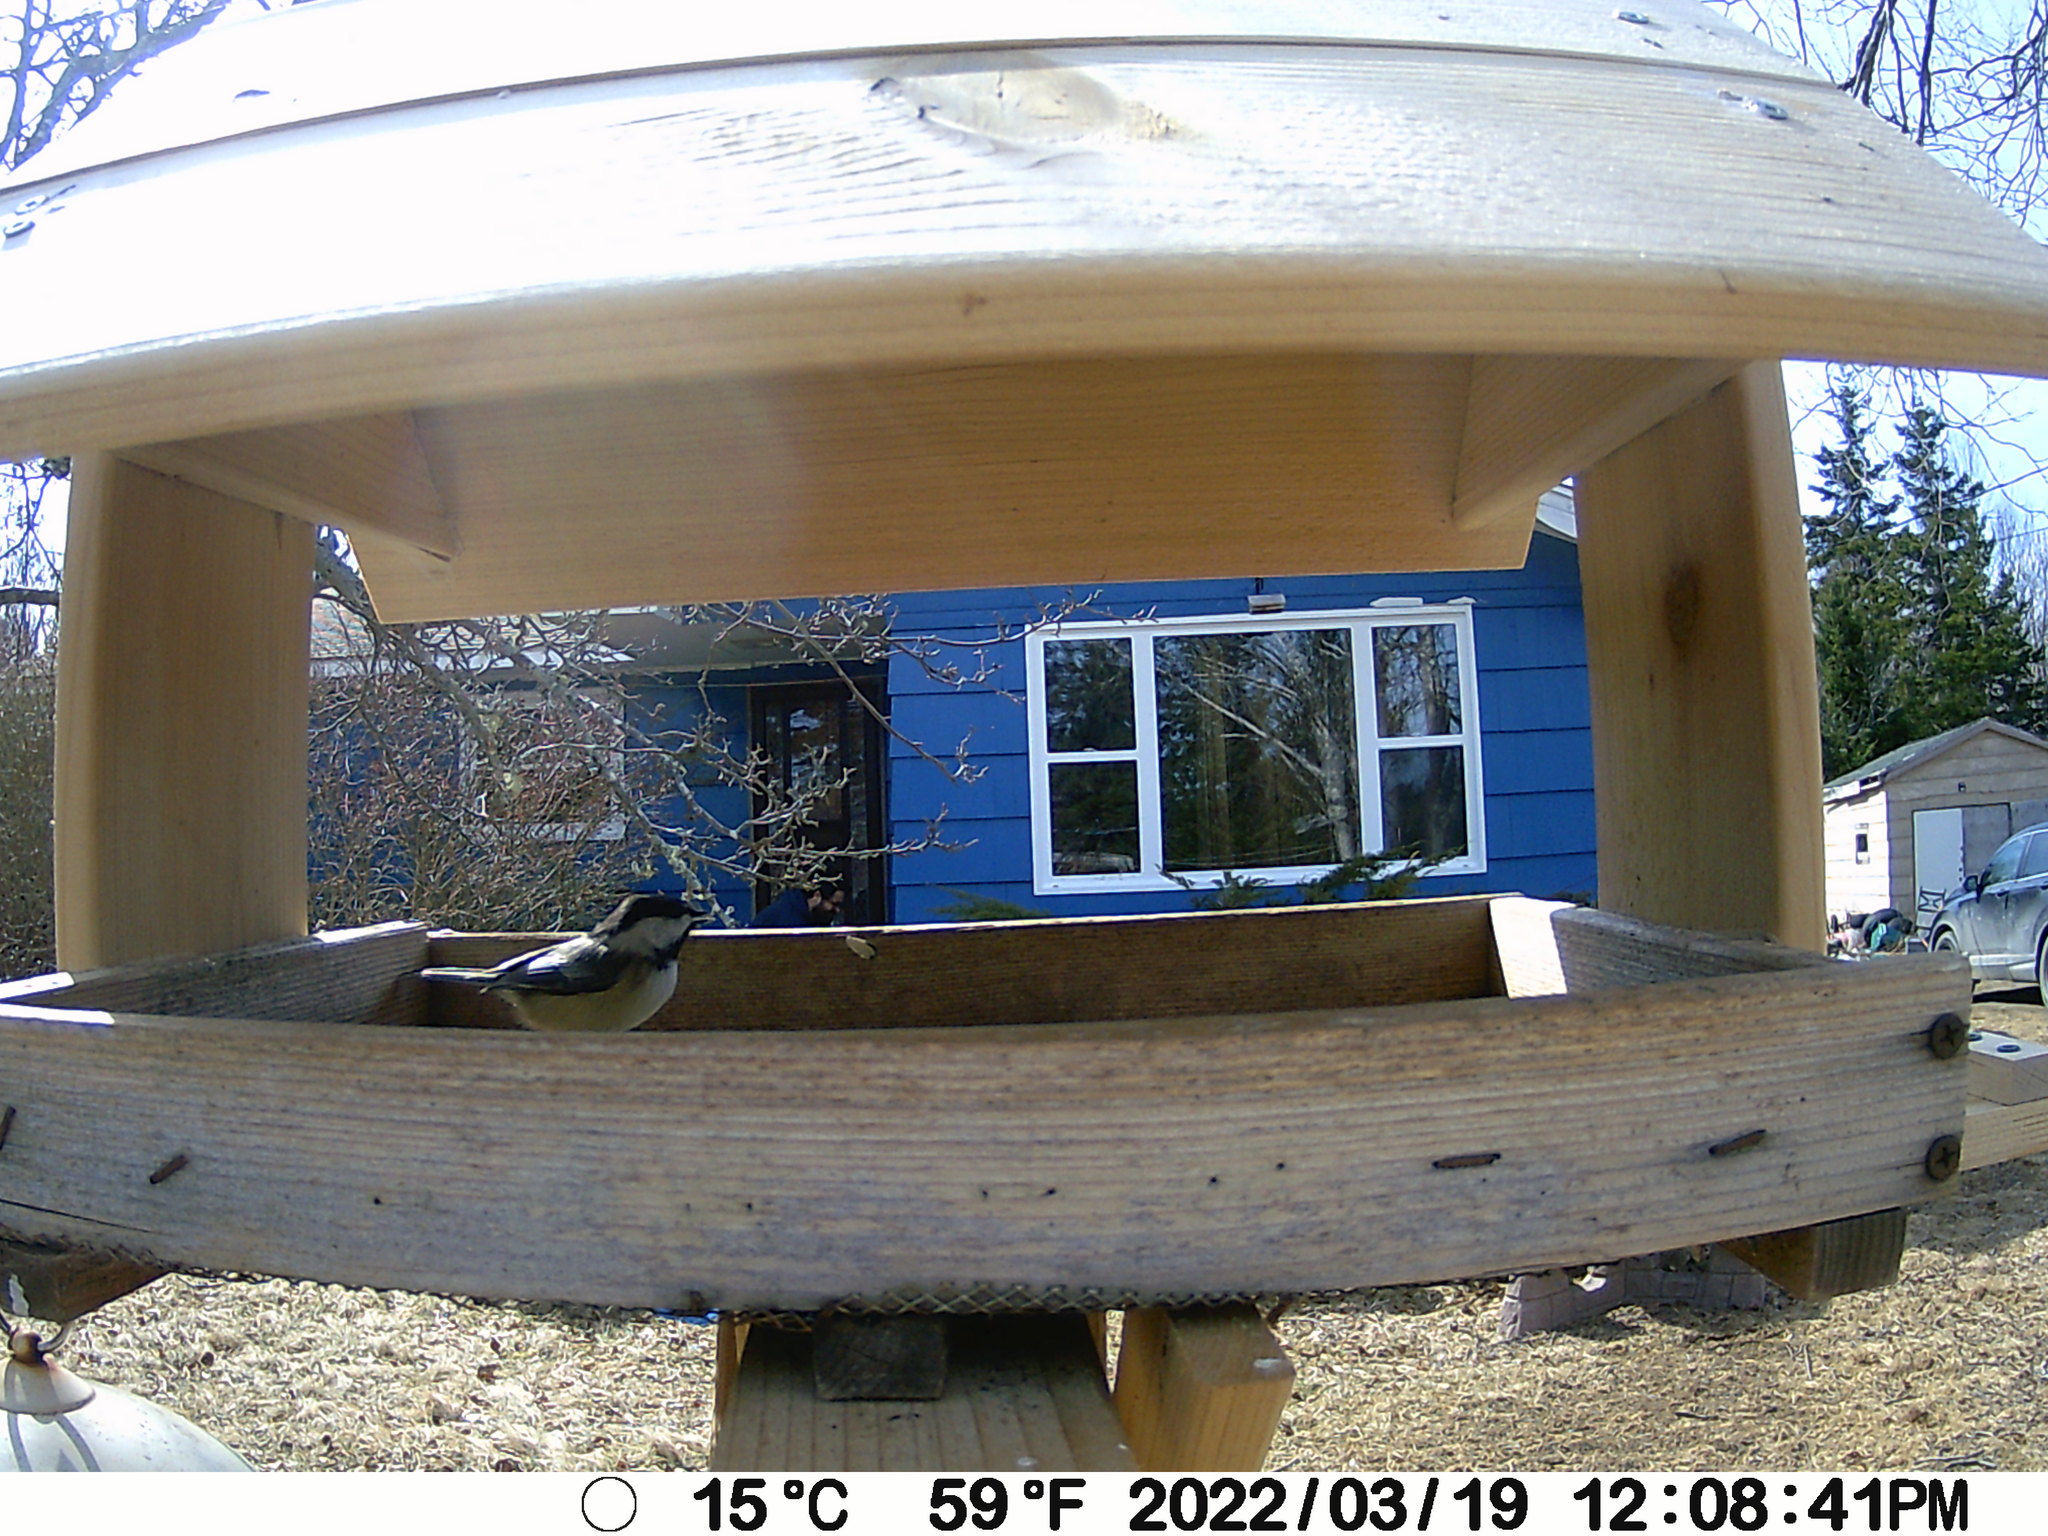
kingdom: Animalia
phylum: Chordata
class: Aves
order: Passeriformes
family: Paridae
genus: Poecile
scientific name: Poecile atricapillus
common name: Black-capped chickadee
